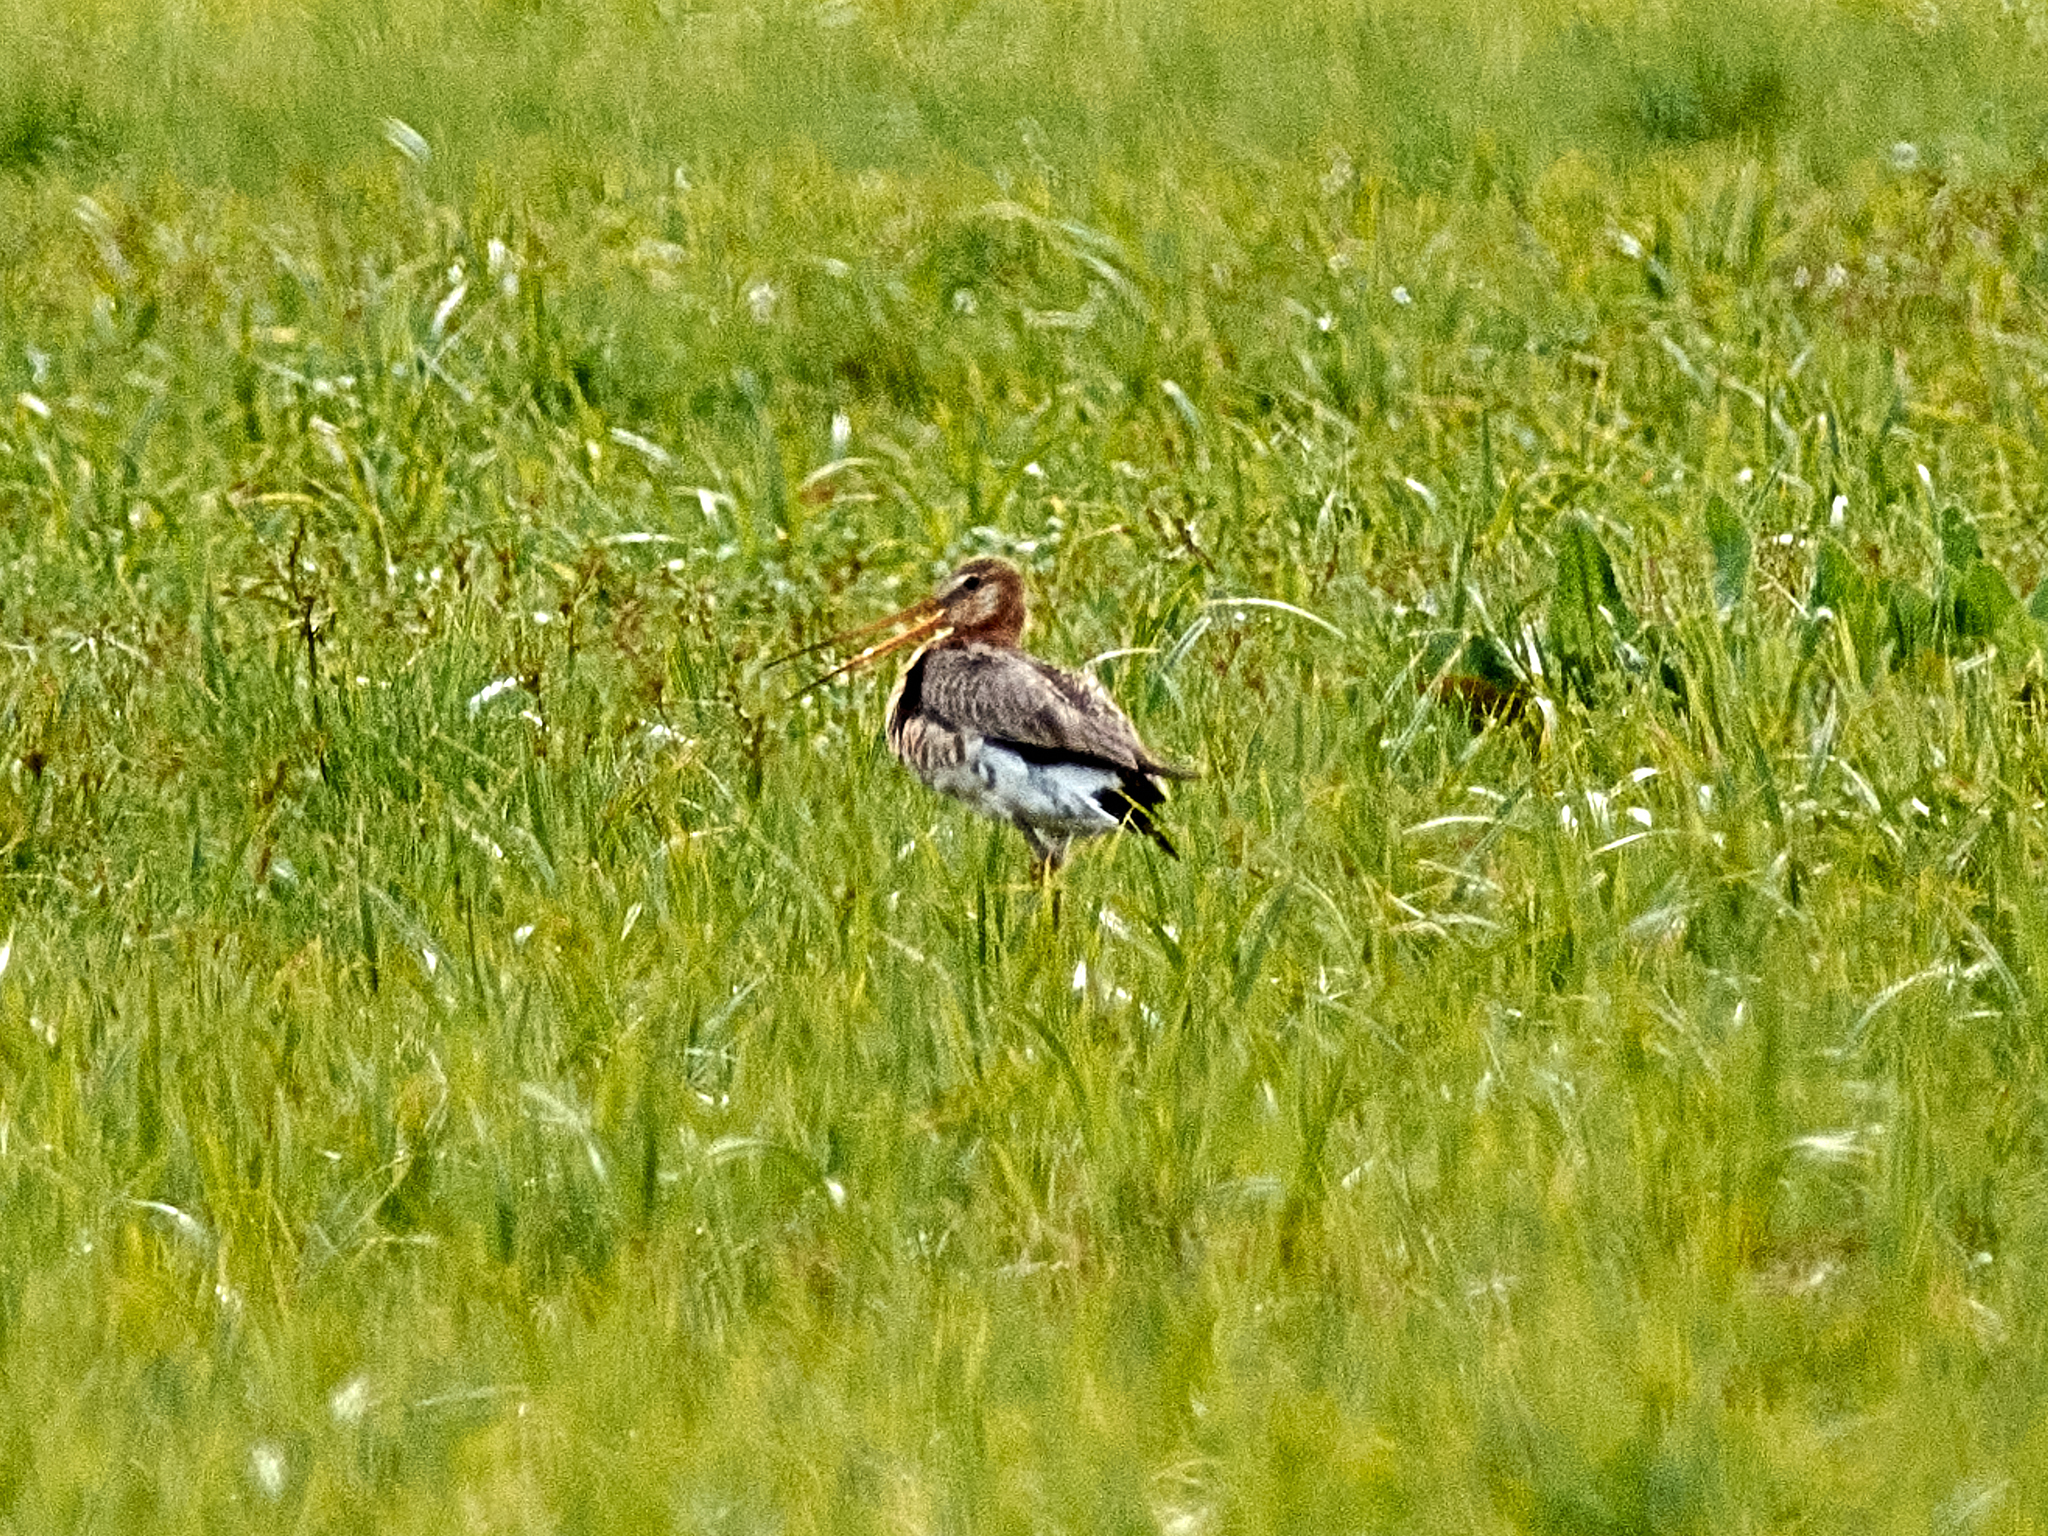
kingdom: Animalia
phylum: Chordata
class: Aves
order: Charadriiformes
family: Scolopacidae
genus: Limosa
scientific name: Limosa limosa
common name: Black-tailed godwit
